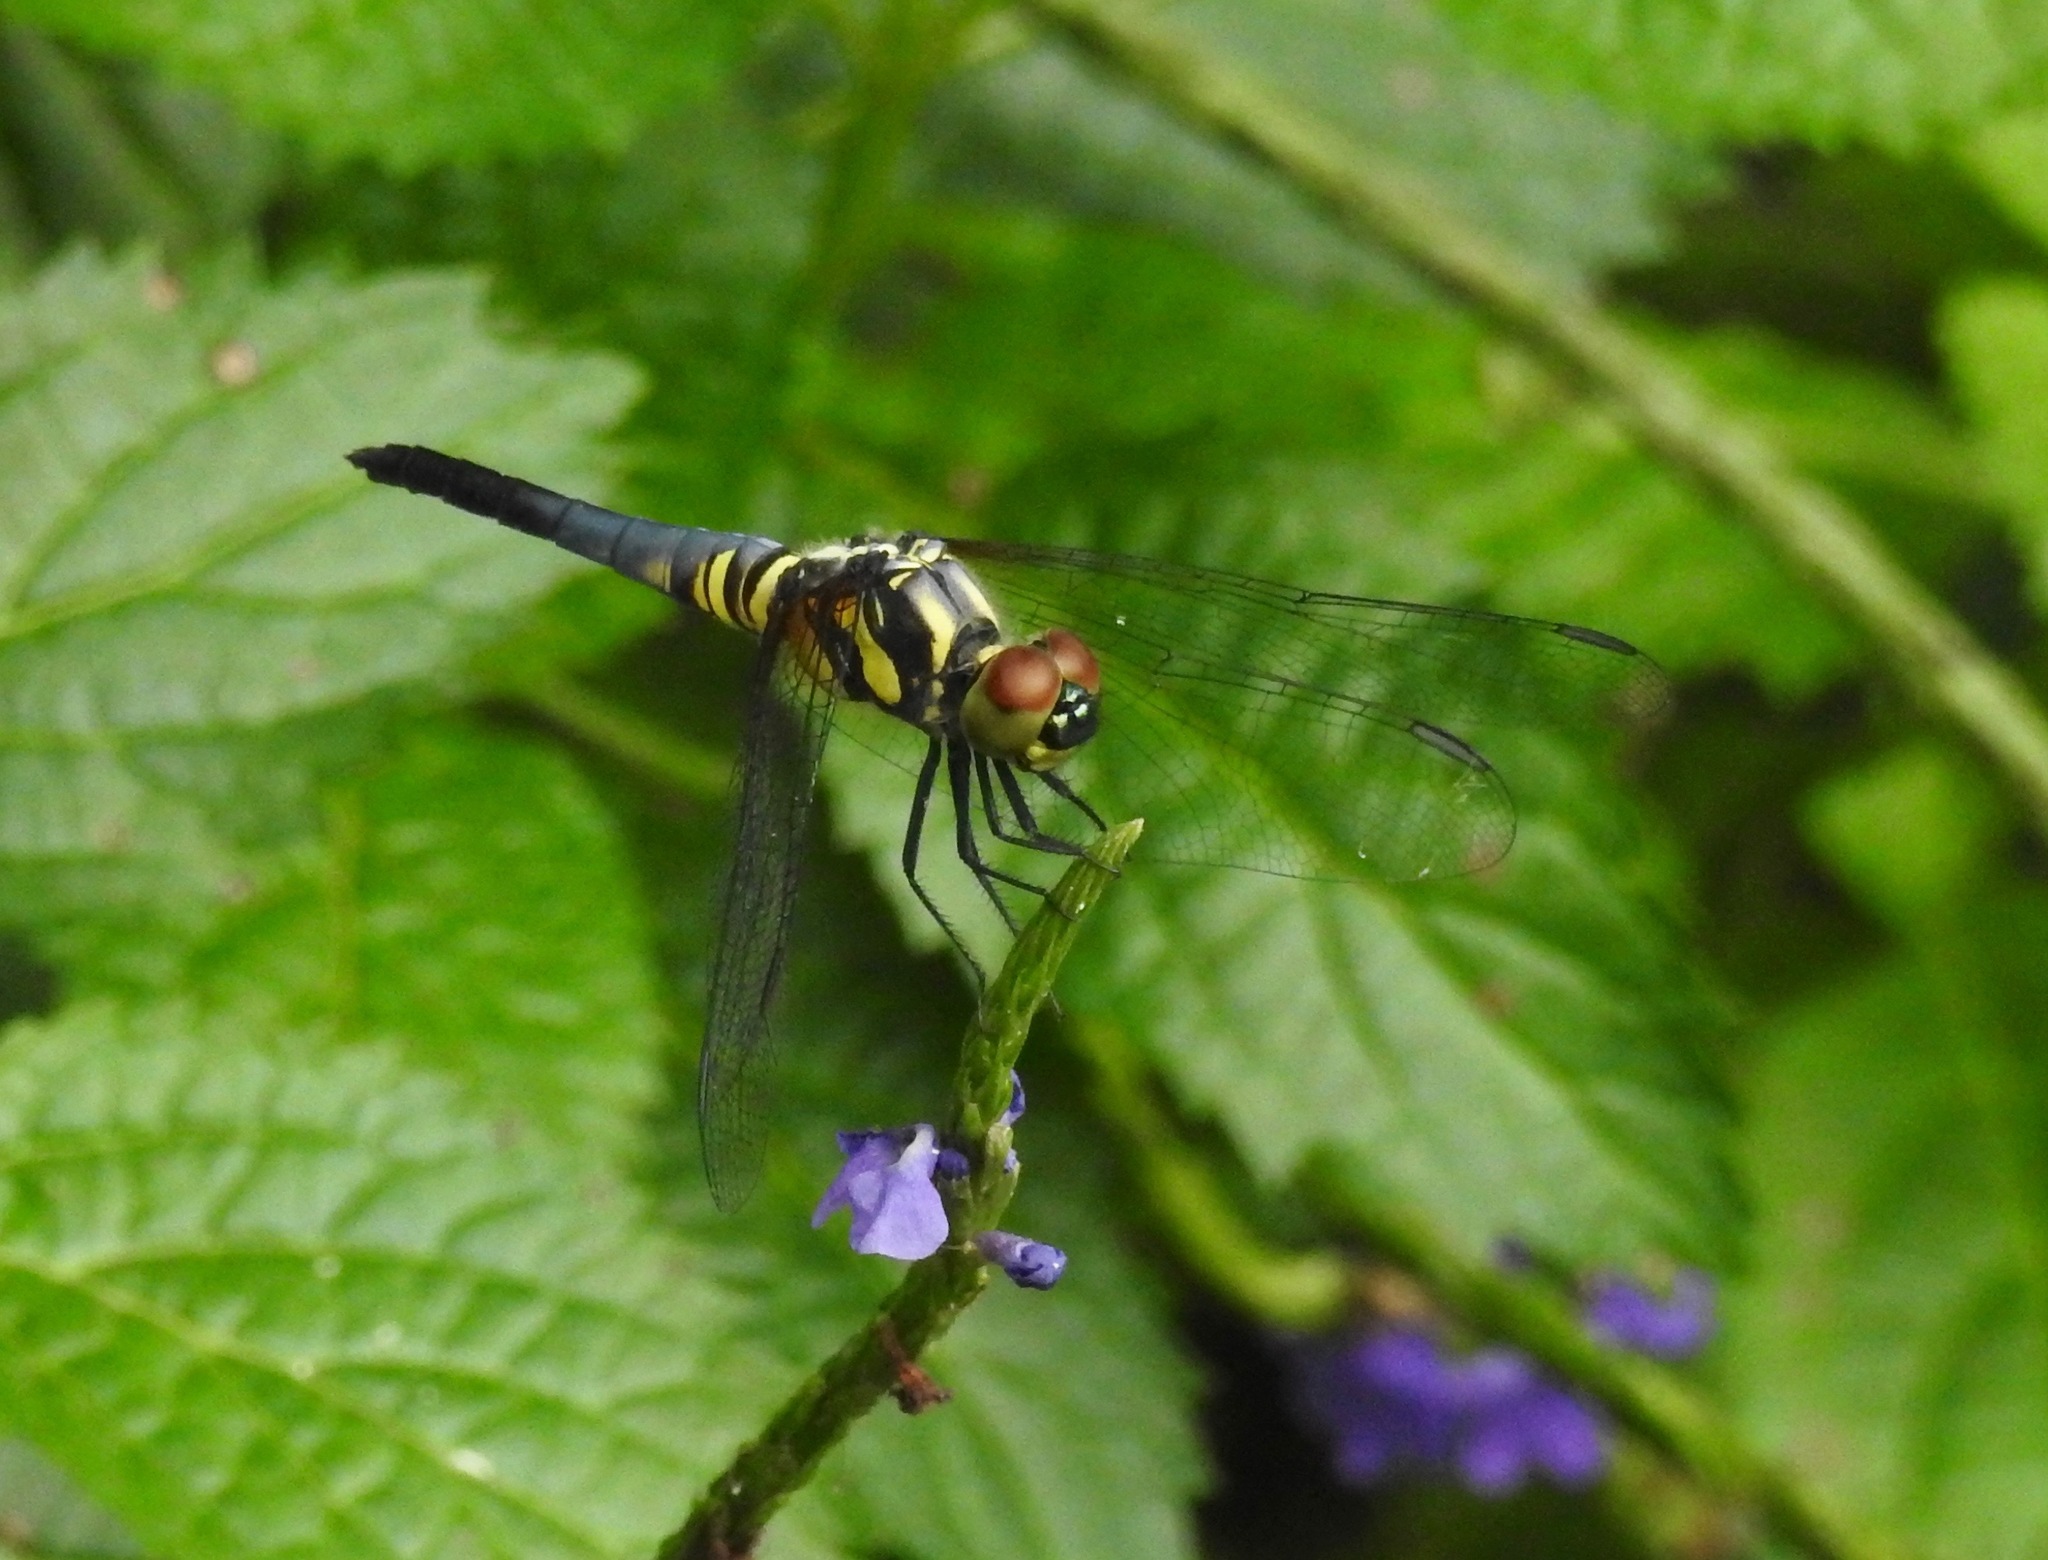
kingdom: Animalia
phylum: Arthropoda
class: Insecta
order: Odonata
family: Libellulidae
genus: Brachydiplax
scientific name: Brachydiplax chalybea
